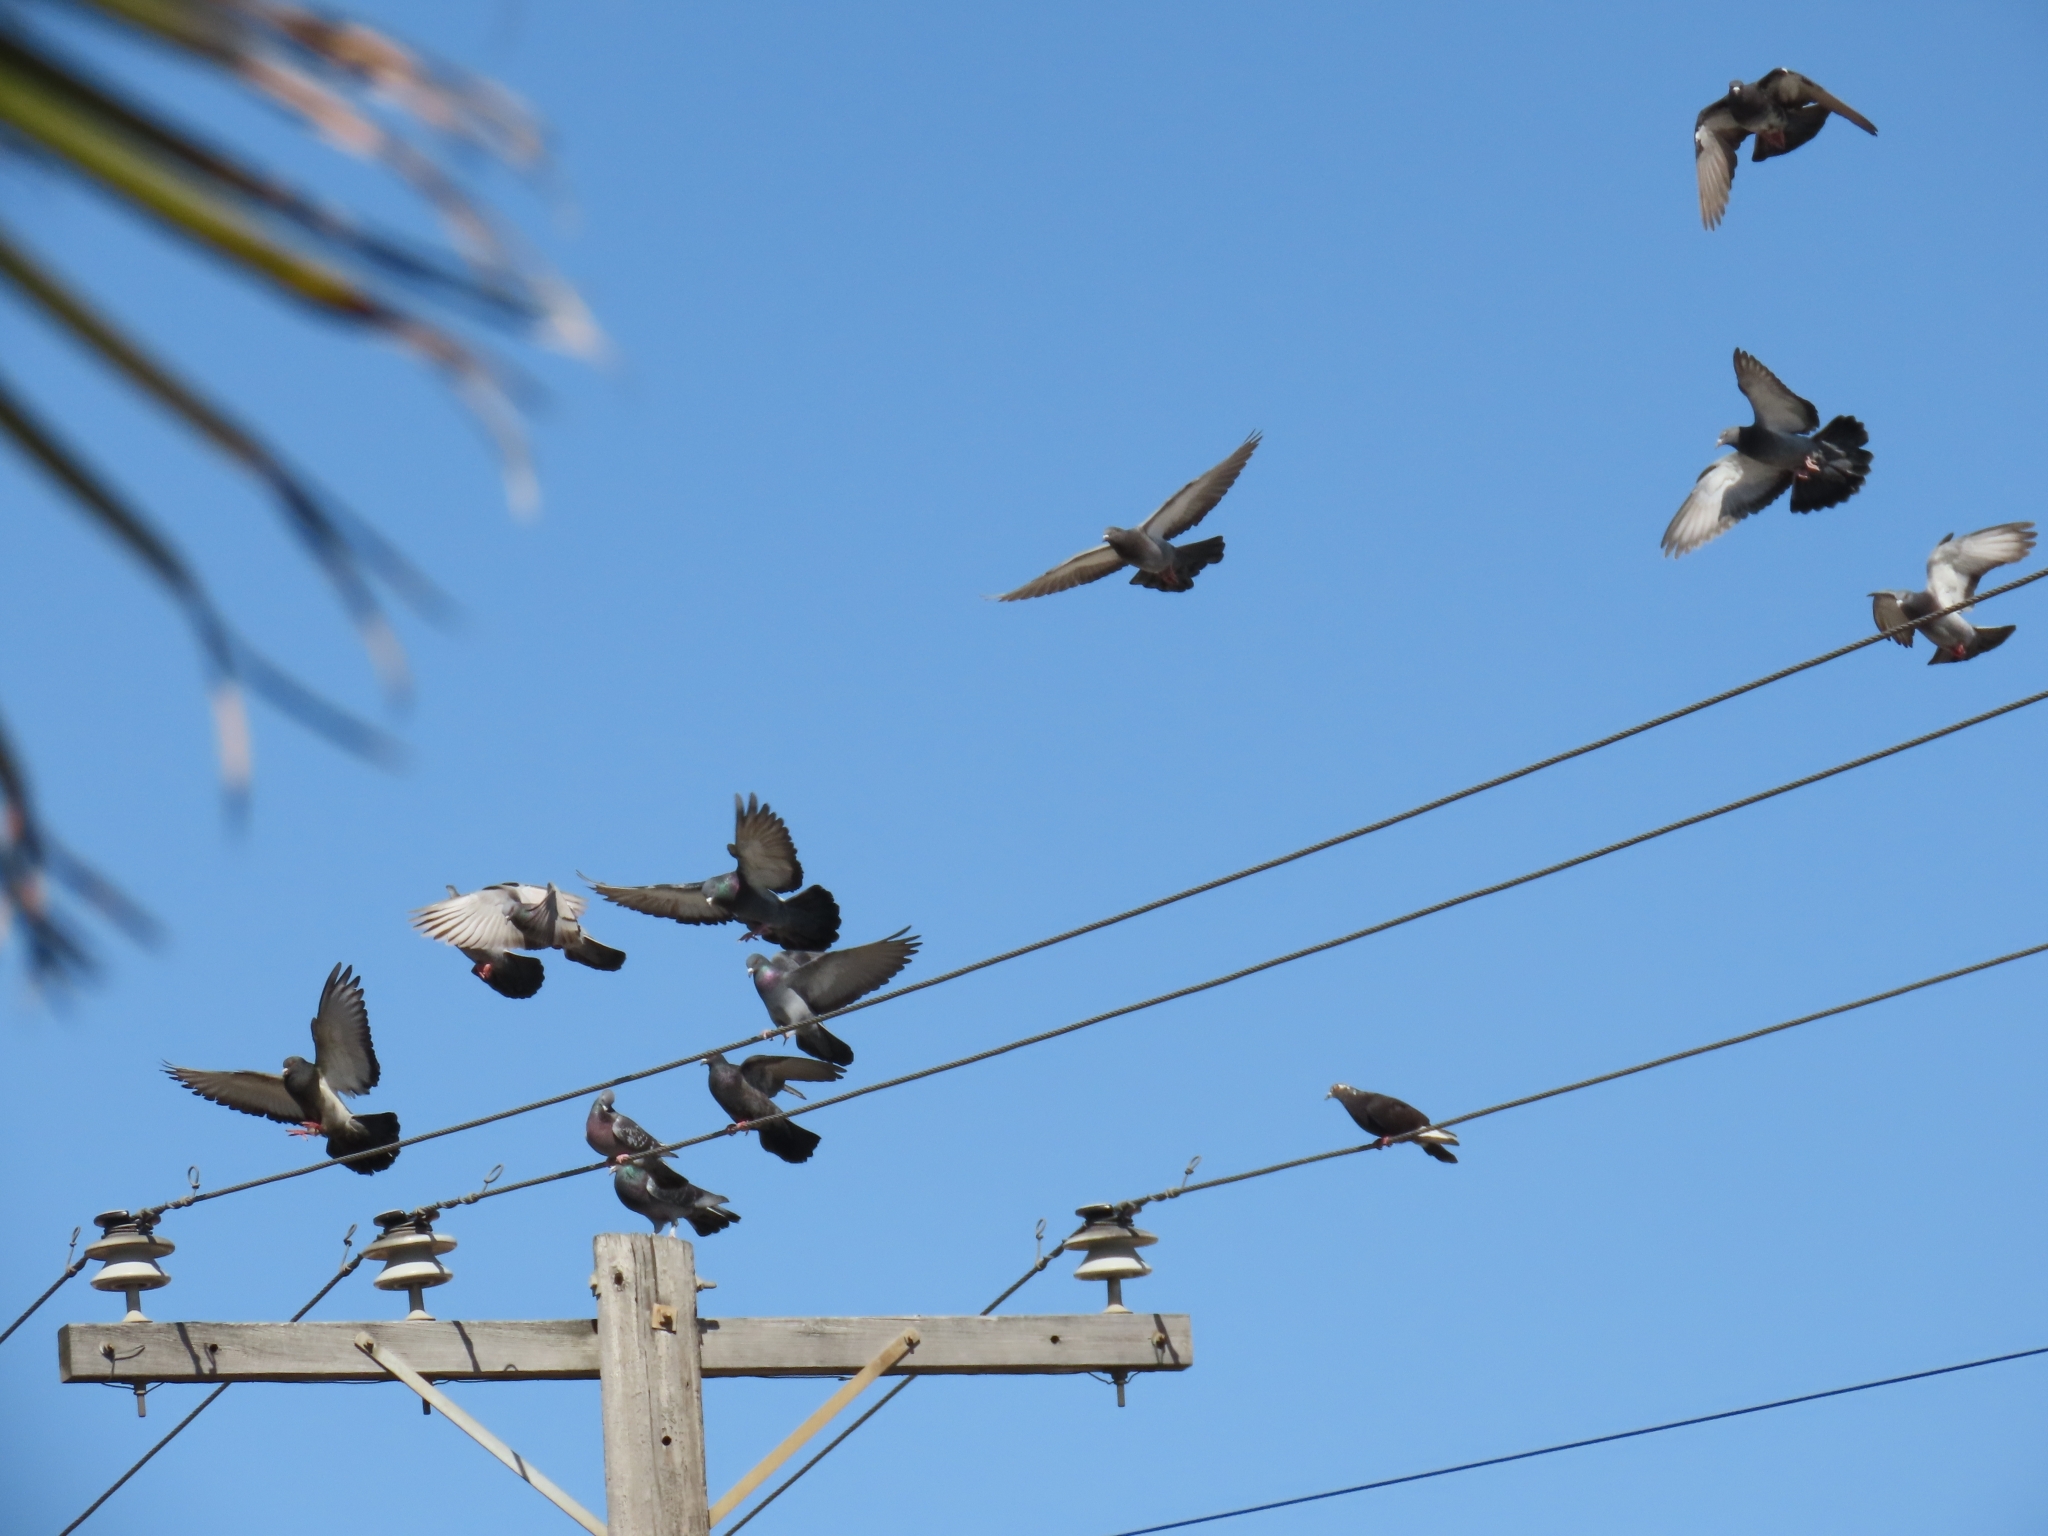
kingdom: Animalia
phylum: Chordata
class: Aves
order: Columbiformes
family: Columbidae
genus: Columba
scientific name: Columba livia
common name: Rock pigeon
